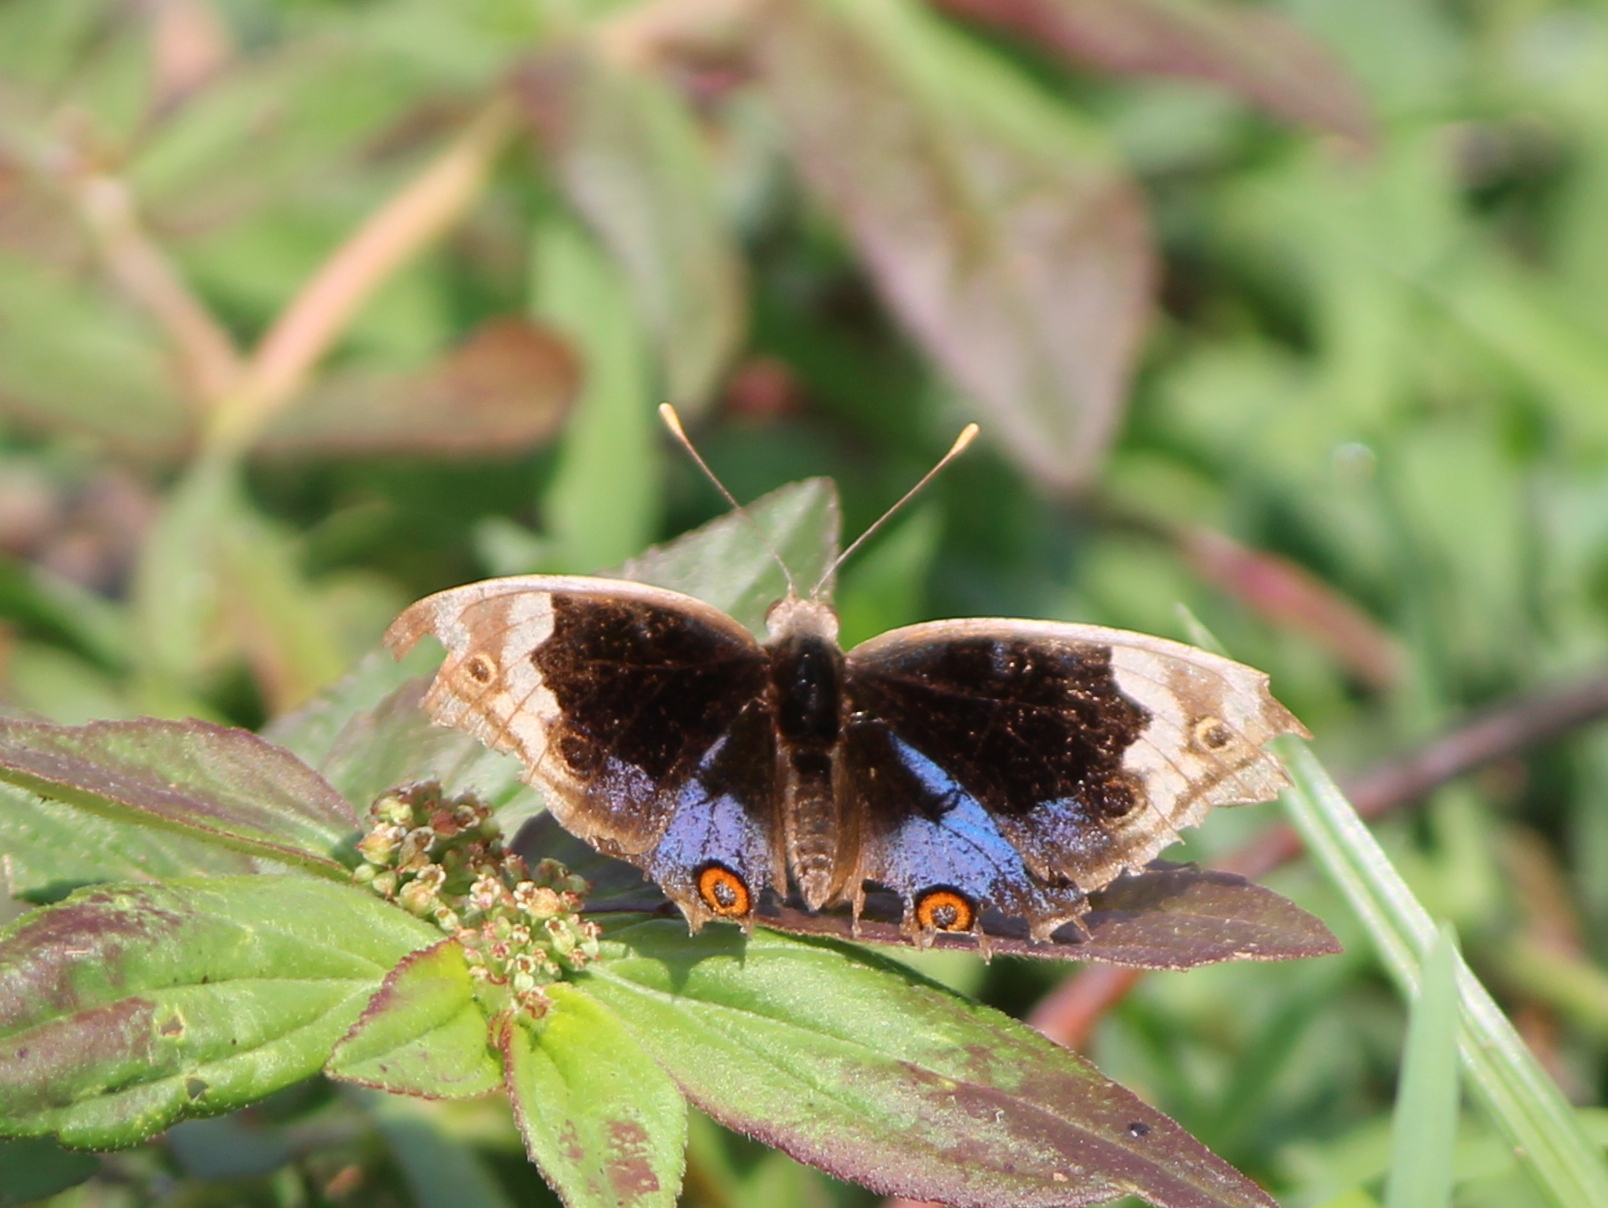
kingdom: Animalia
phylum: Arthropoda
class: Insecta
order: Lepidoptera
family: Nymphalidae
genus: Junonia
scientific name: Junonia orithya
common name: Blue pansy
